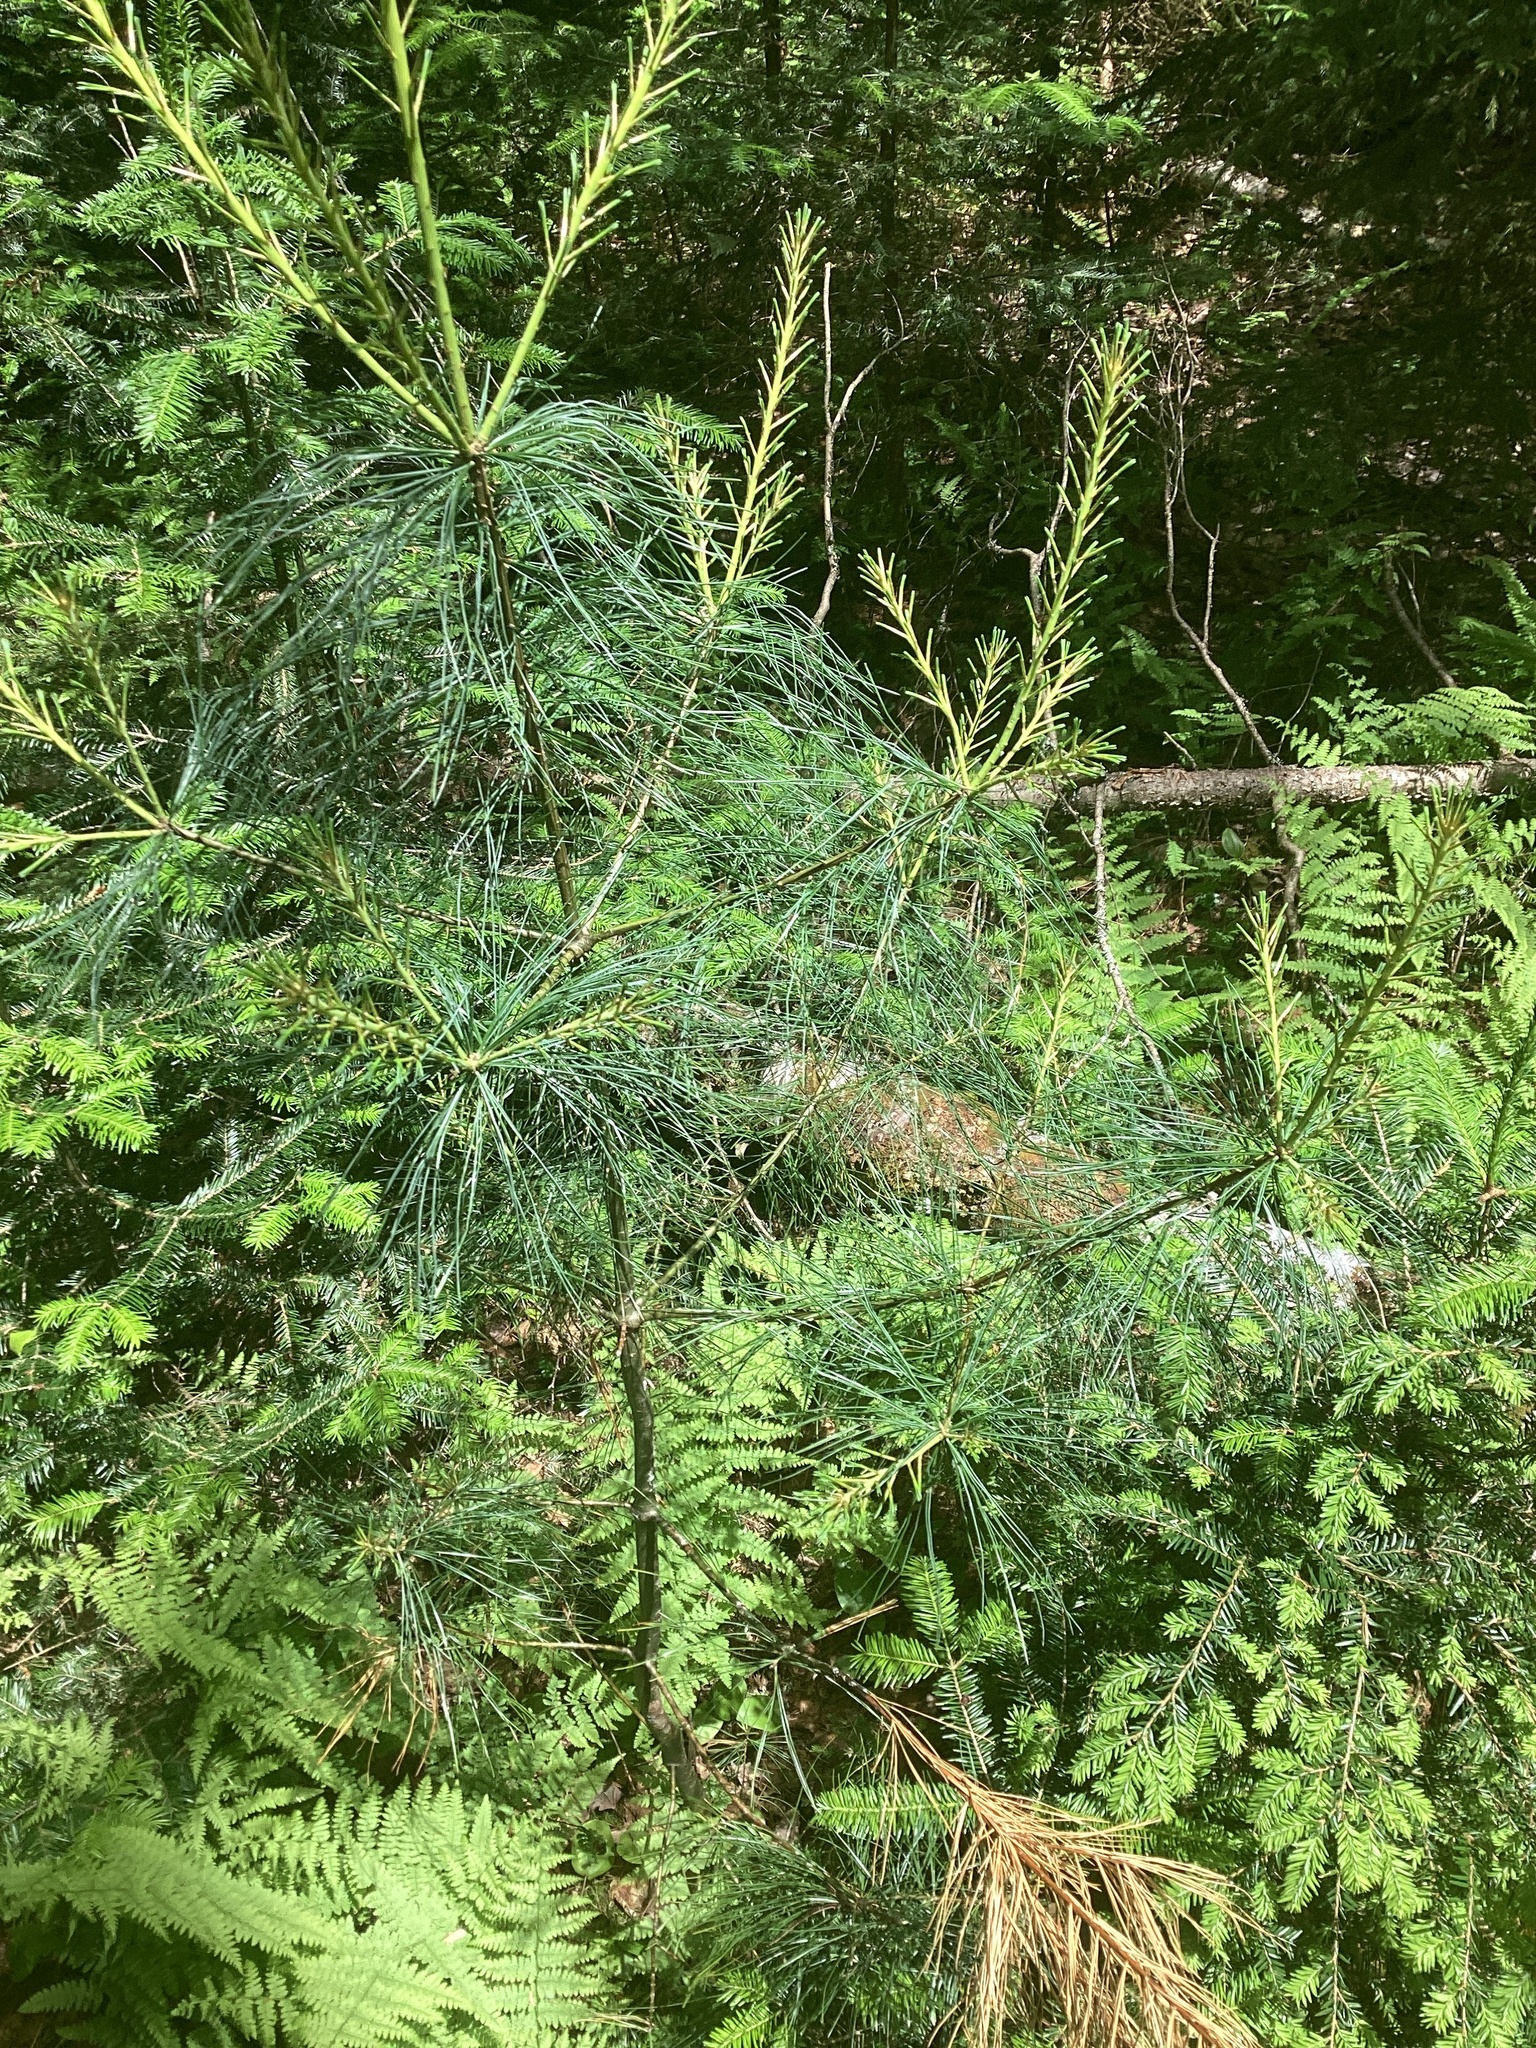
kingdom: Plantae
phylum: Tracheophyta
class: Pinopsida
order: Pinales
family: Pinaceae
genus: Pinus
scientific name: Pinus strobus
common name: Weymouth pine
